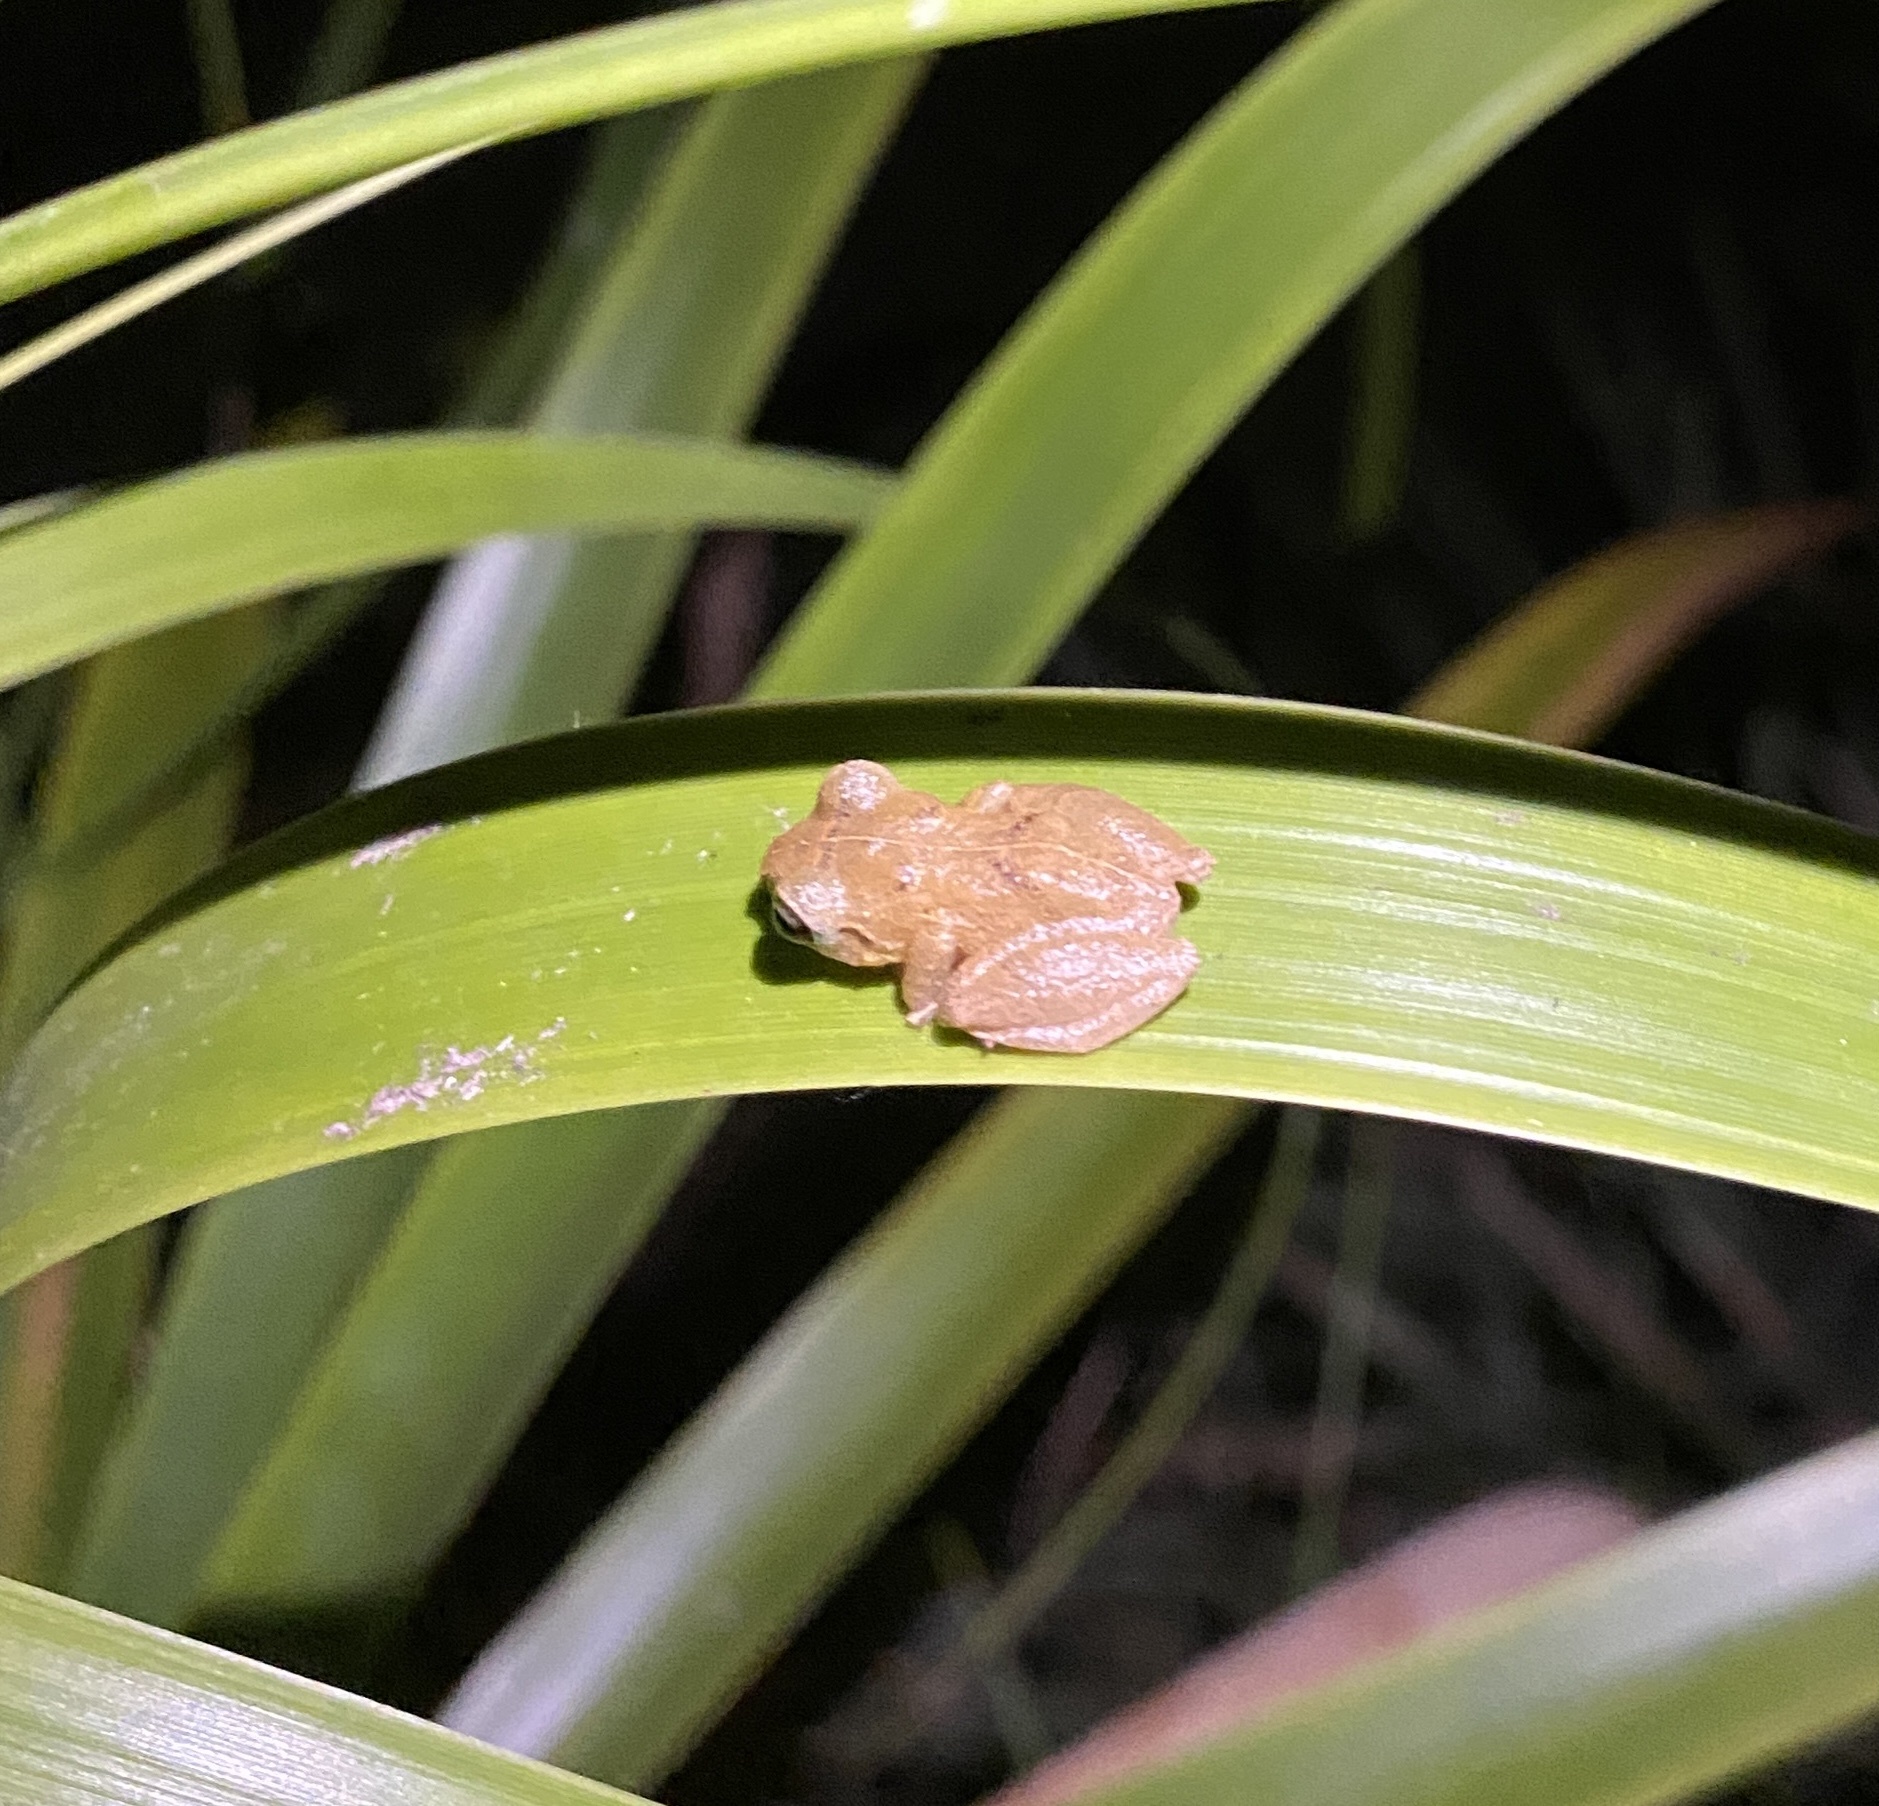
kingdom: Animalia
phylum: Chordata
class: Amphibia
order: Anura
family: Craugastoridae
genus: Pristimantis
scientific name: Pristimantis ridens
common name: Rio san juan robber frog
